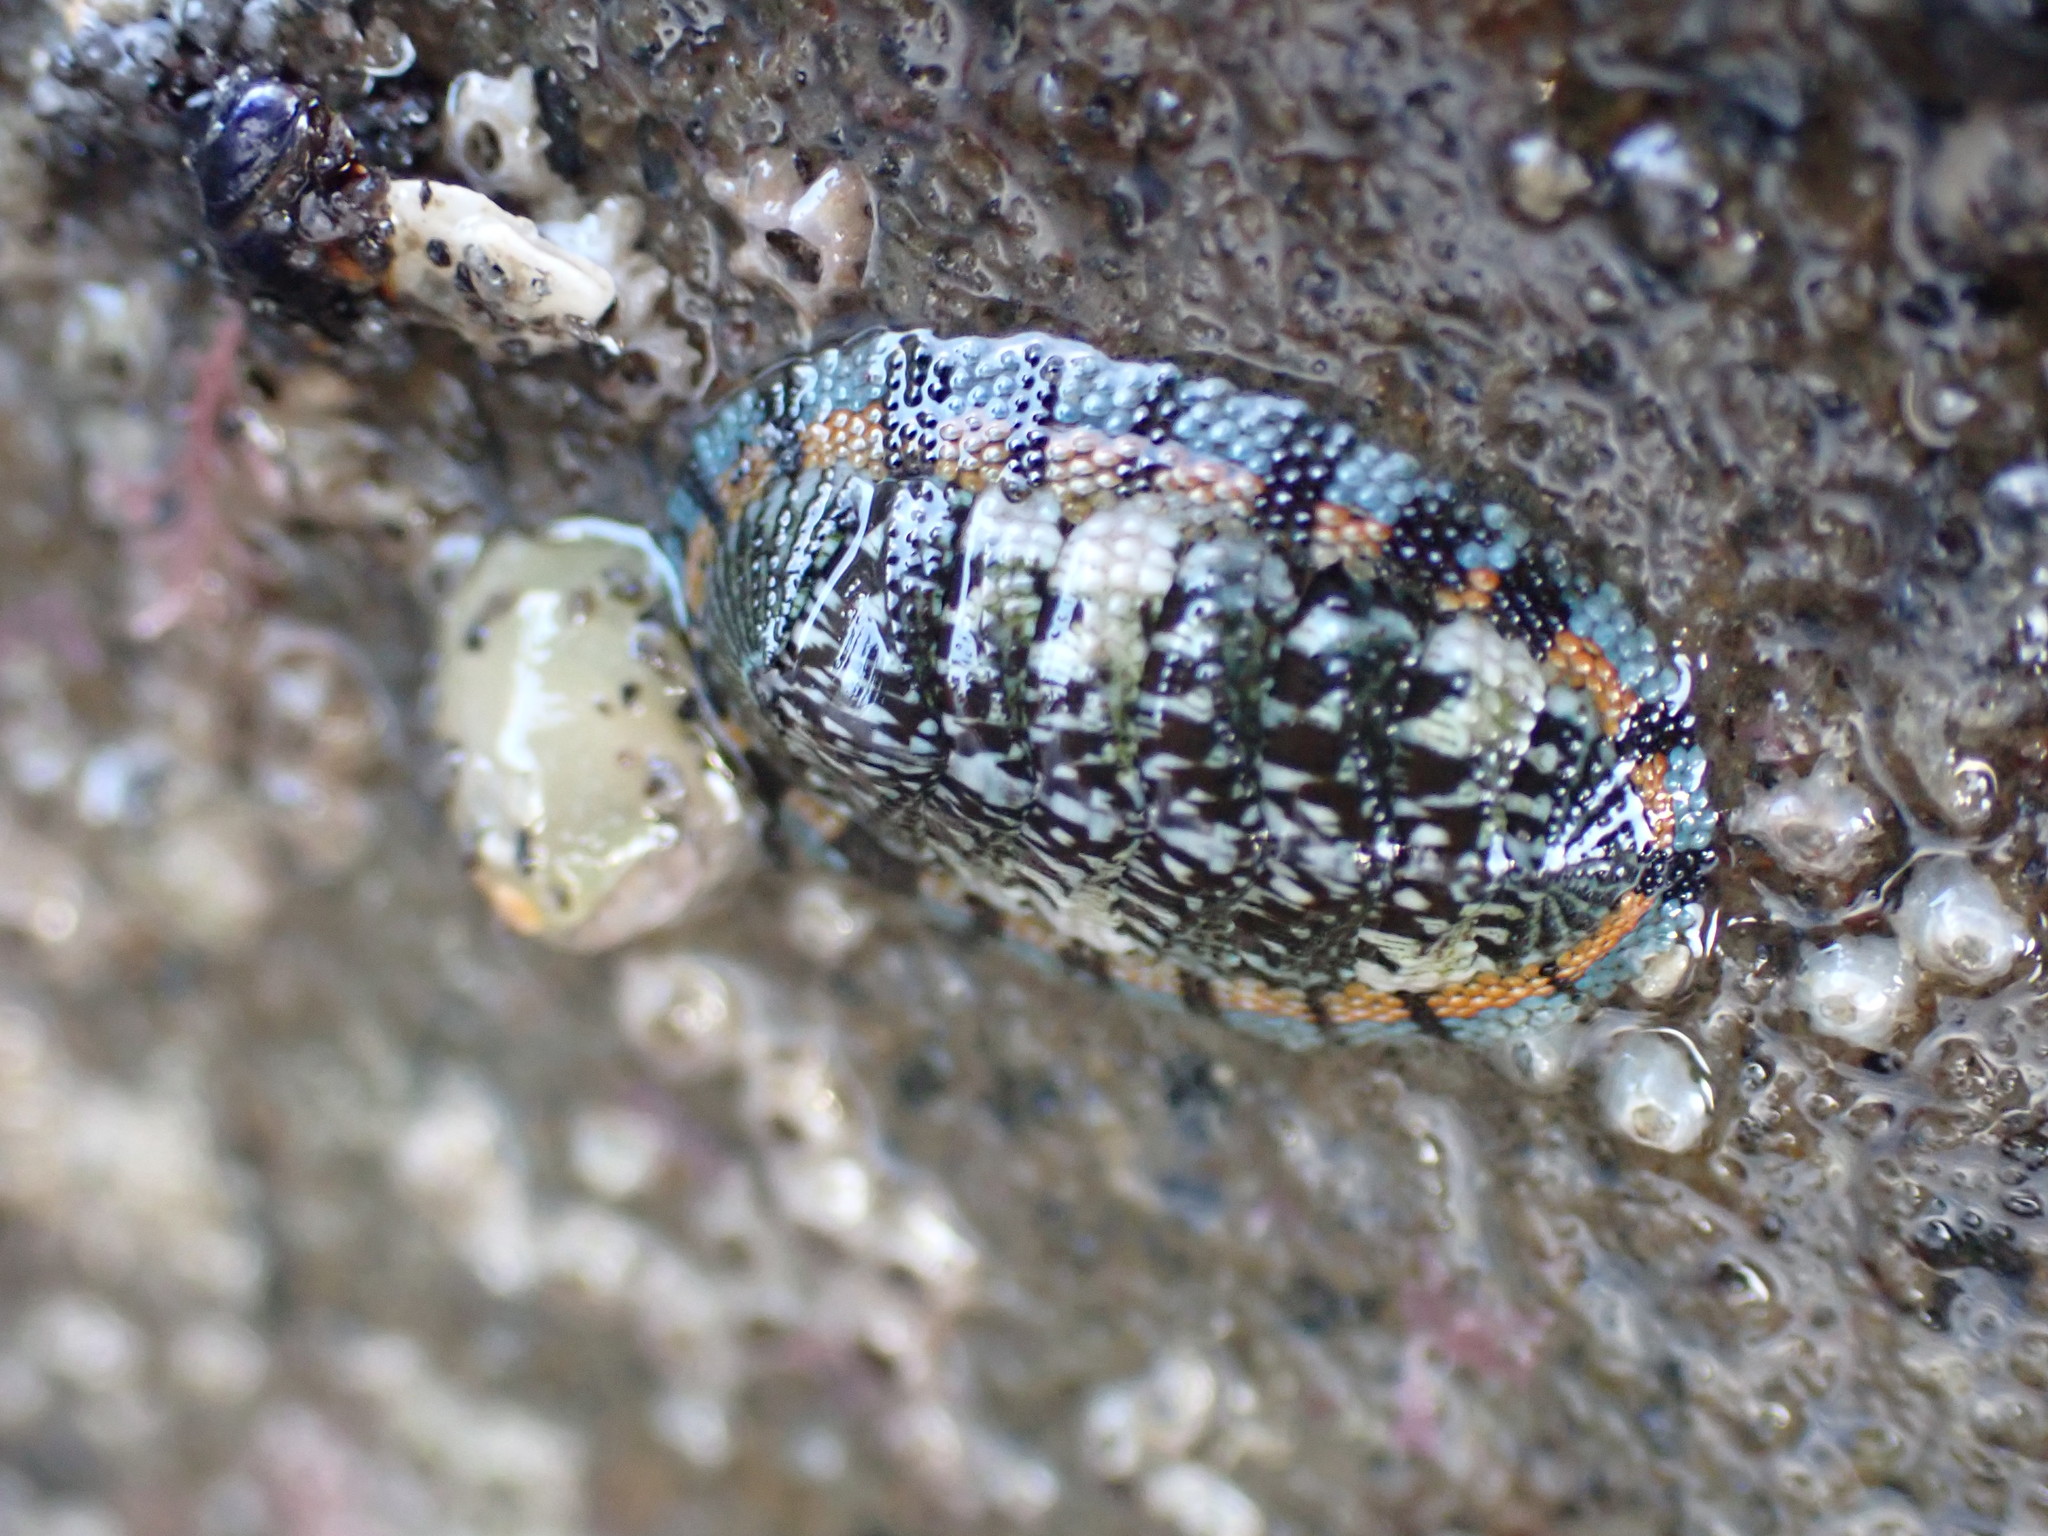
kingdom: Animalia
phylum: Mollusca
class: Polyplacophora
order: Chitonida
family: Chitonidae
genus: Sypharochiton
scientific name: Sypharochiton sinclairi
